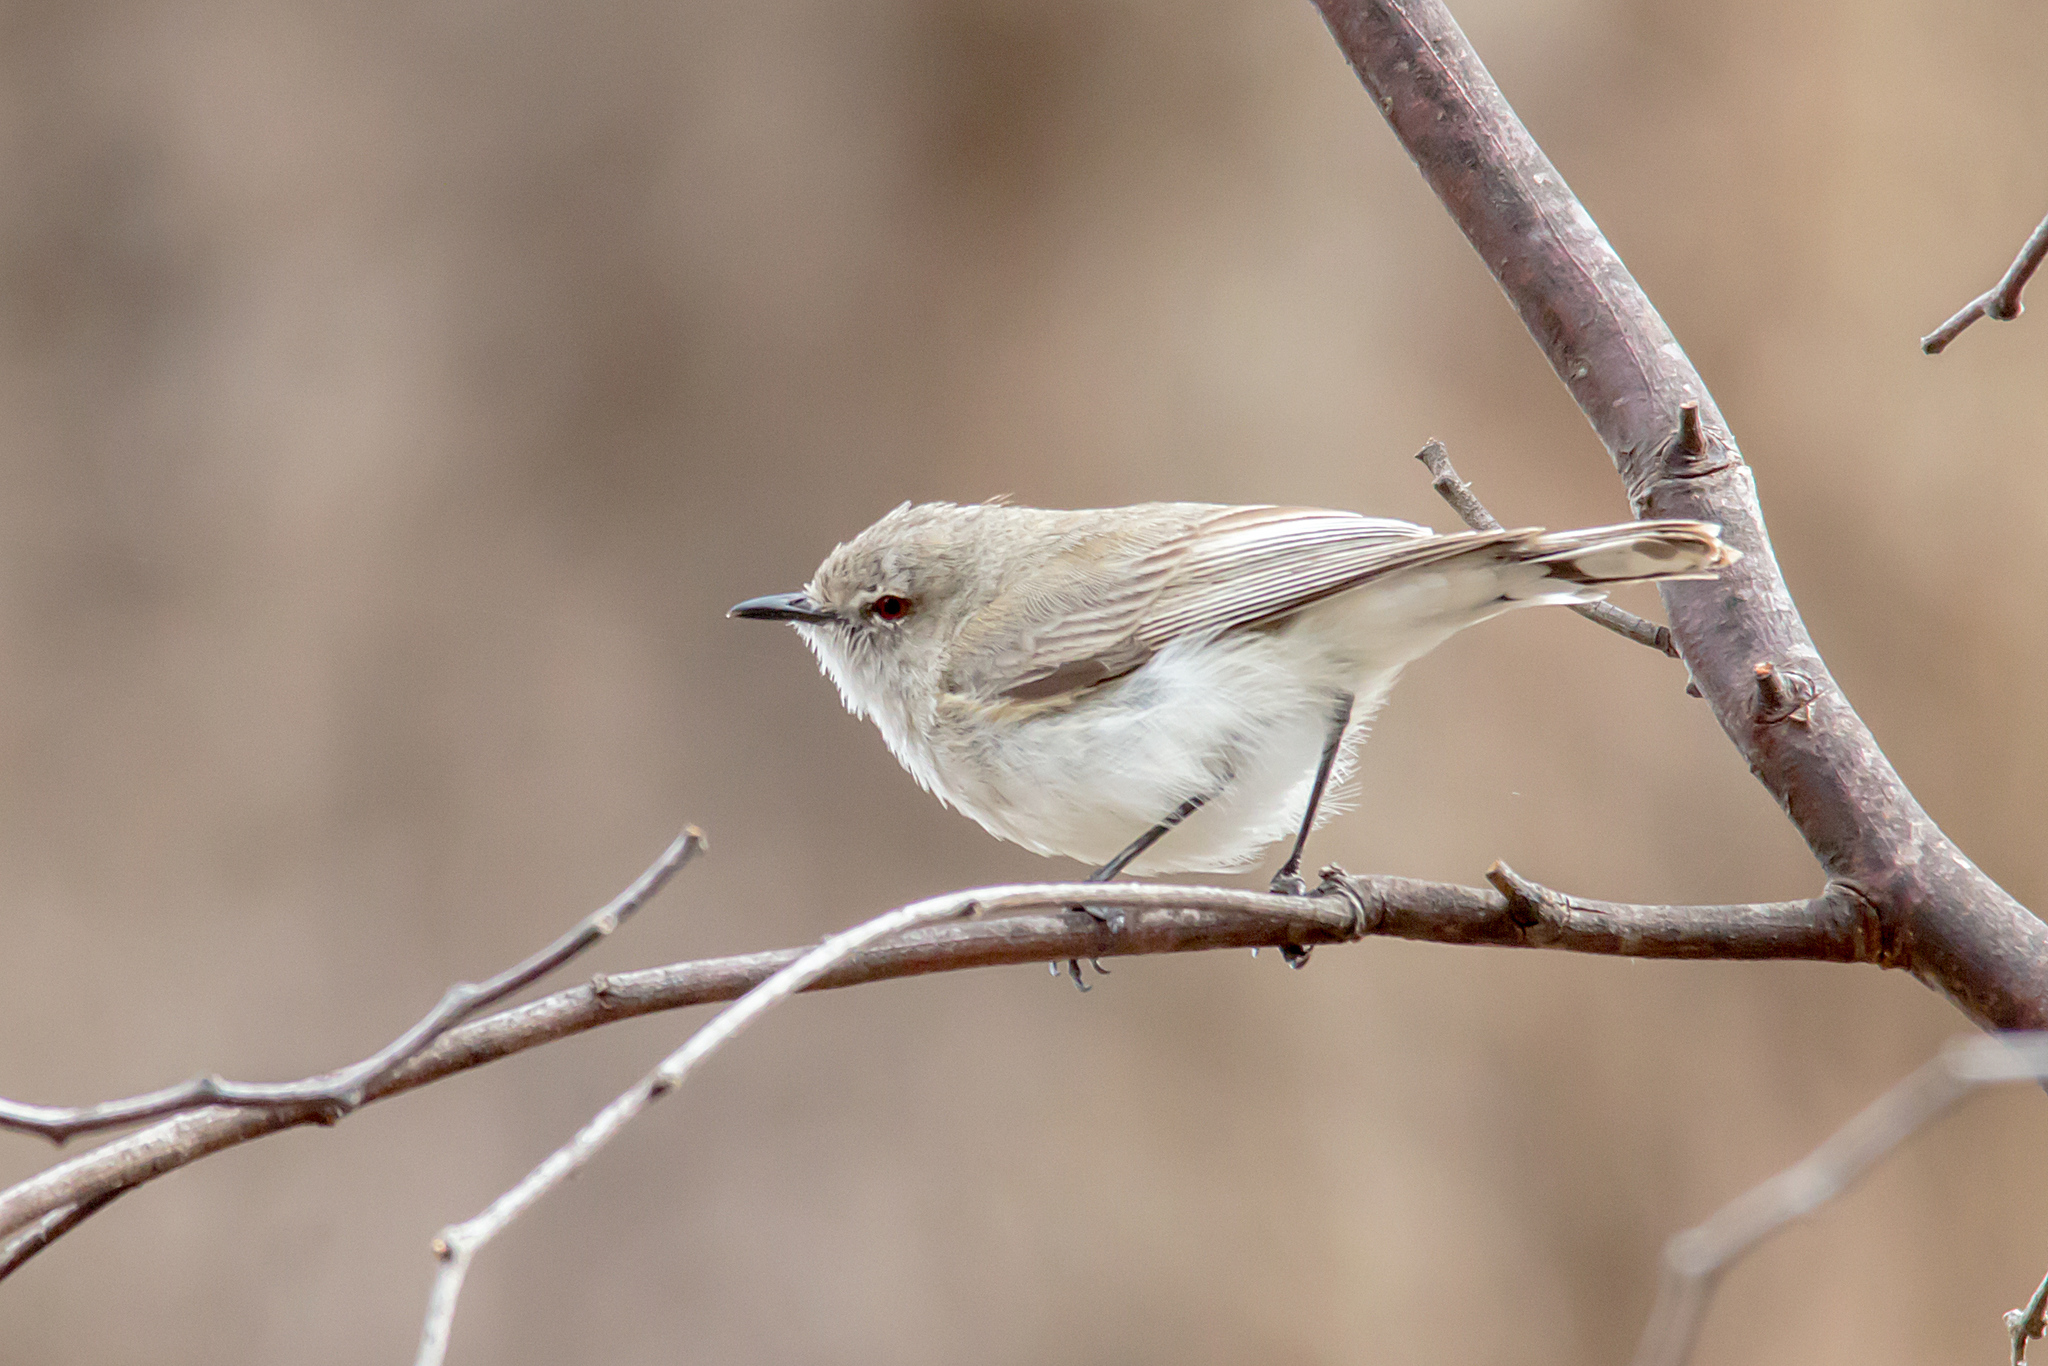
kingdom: Animalia
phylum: Chordata
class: Aves
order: Passeriformes
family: Acanthizidae
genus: Gerygone
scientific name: Gerygone fusca
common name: Western gerygone
